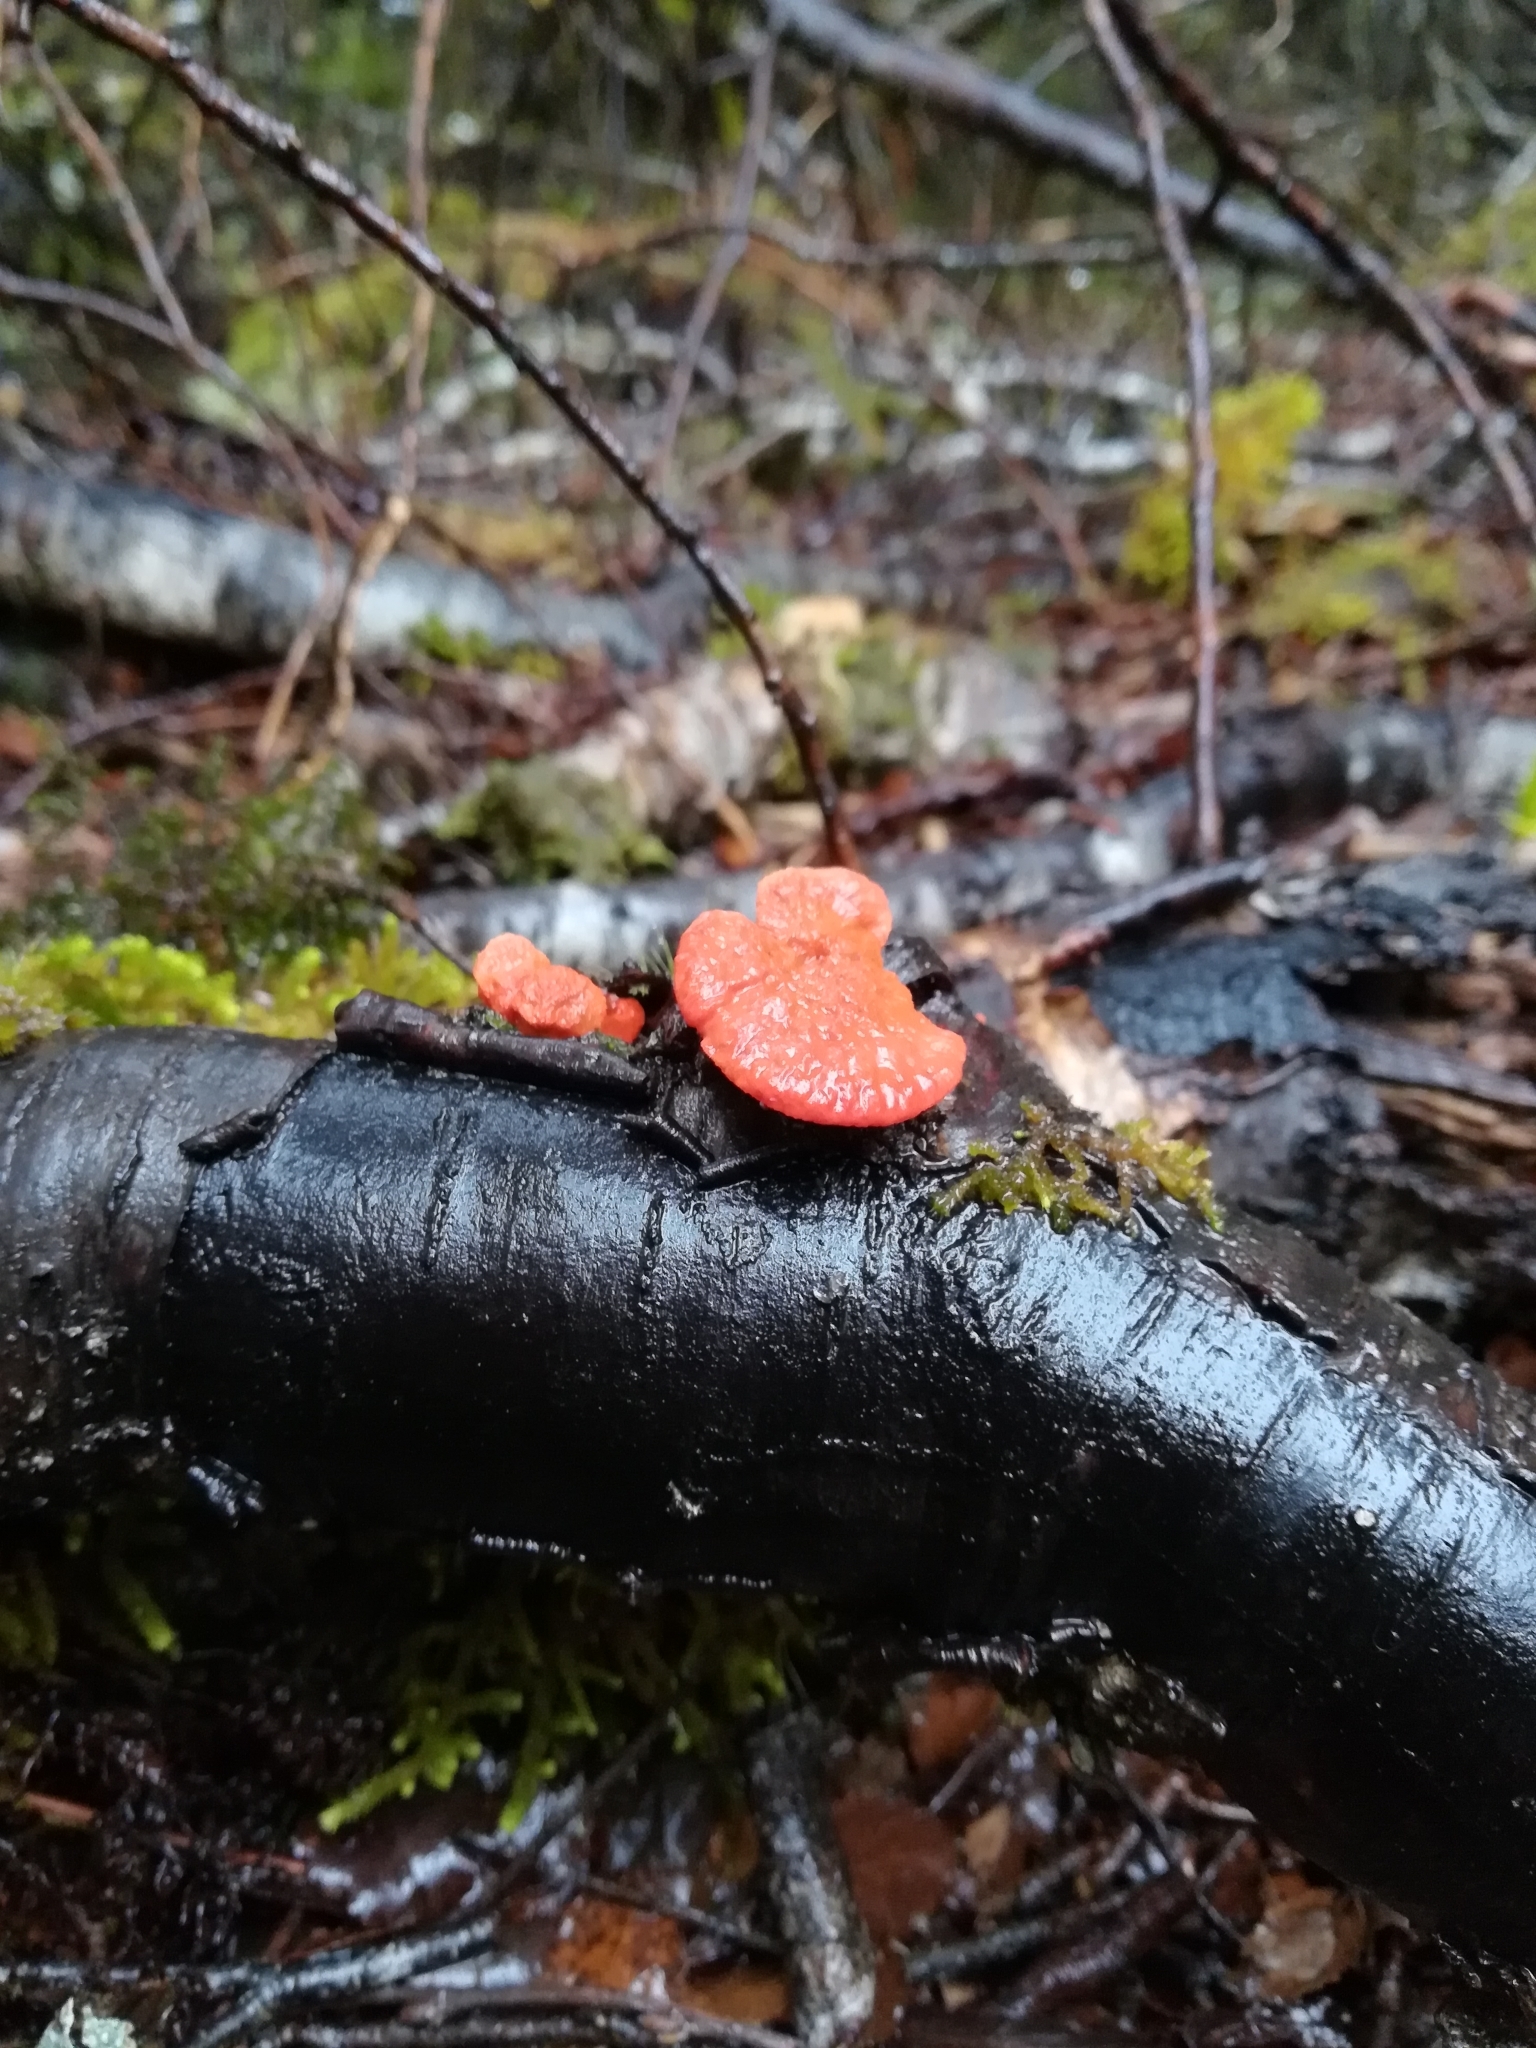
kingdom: Fungi
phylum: Basidiomycota
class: Agaricomycetes
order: Polyporales
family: Polyporaceae
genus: Trametes
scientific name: Trametes coccinea
